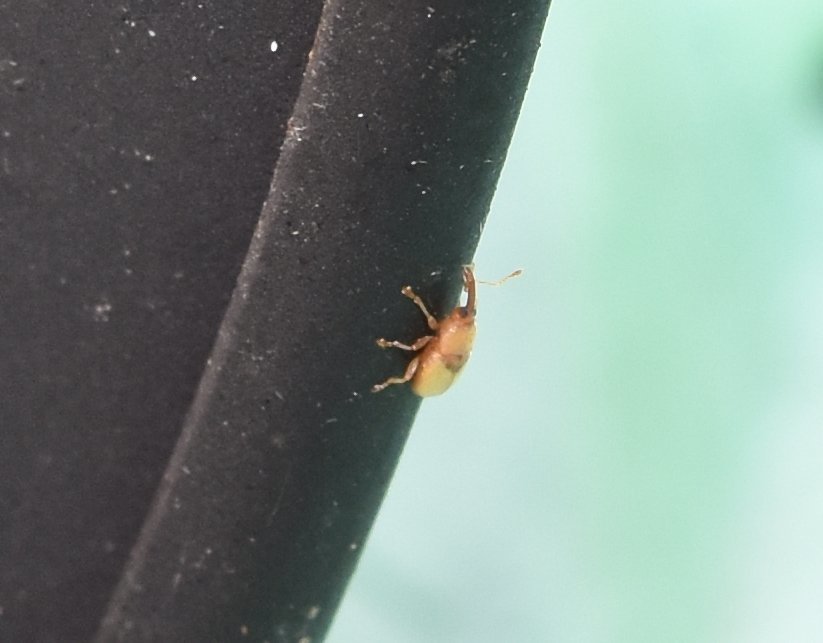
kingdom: Animalia
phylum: Arthropoda
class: Insecta
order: Coleoptera
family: Curculionidae
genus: Notolomus
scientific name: Notolomus basalis
